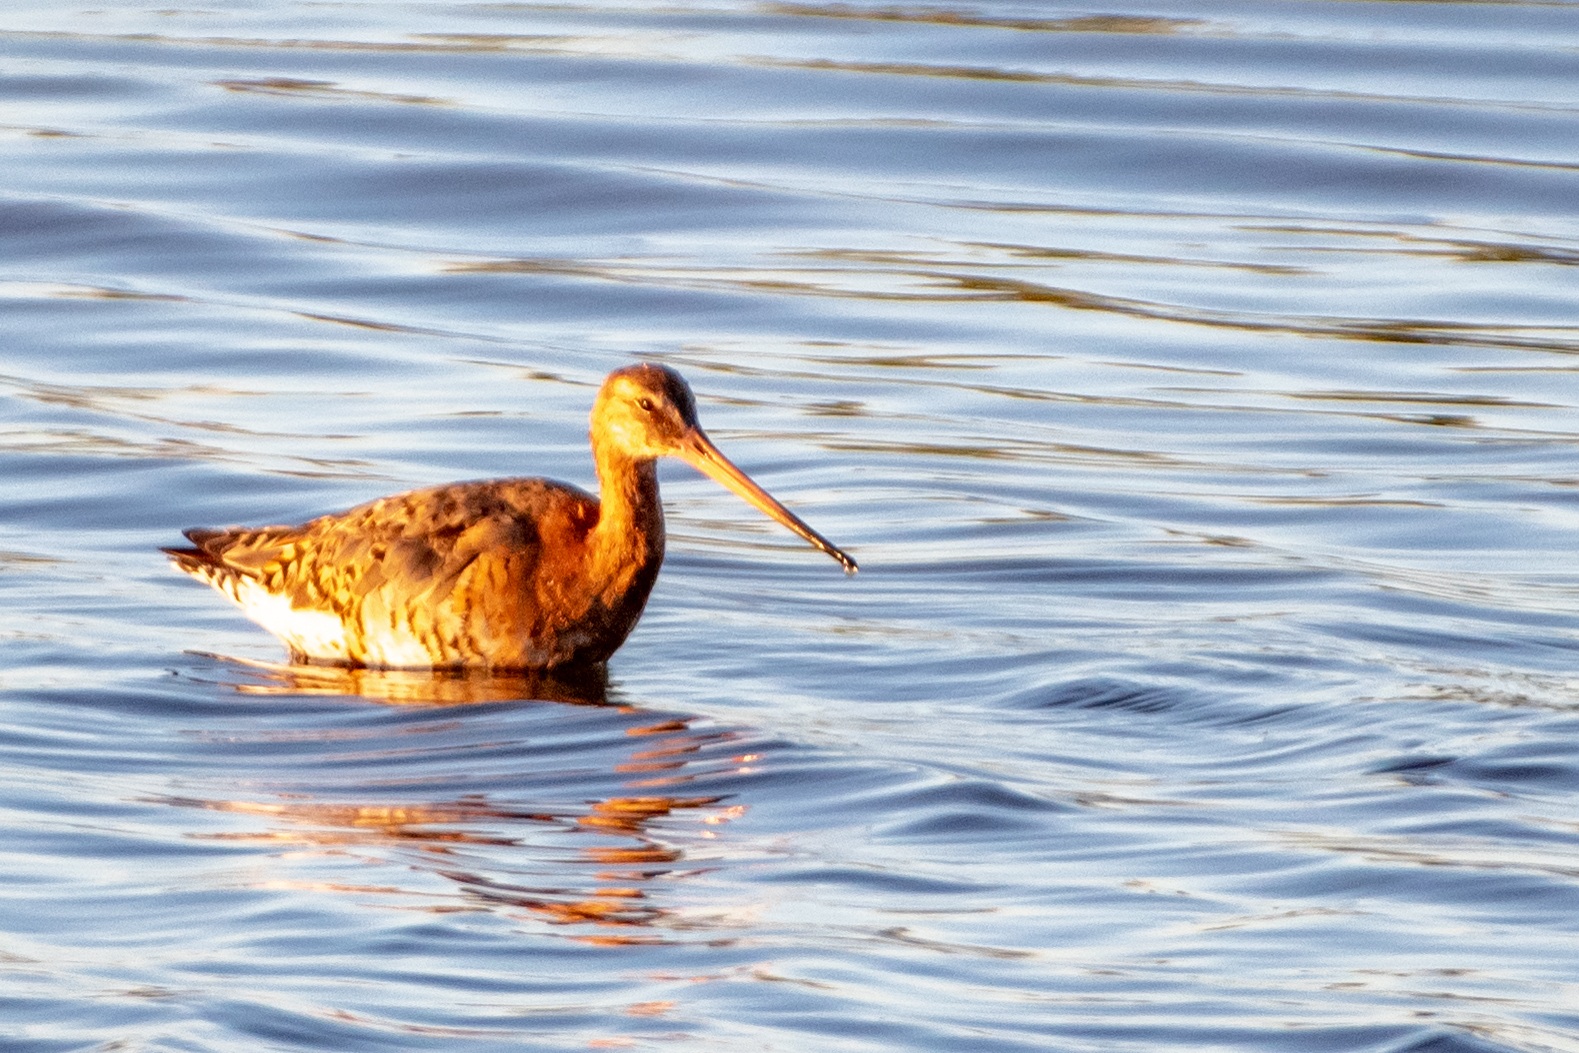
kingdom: Animalia
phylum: Chordata
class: Aves
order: Charadriiformes
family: Scolopacidae
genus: Limosa
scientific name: Limosa limosa
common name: Black-tailed godwit
